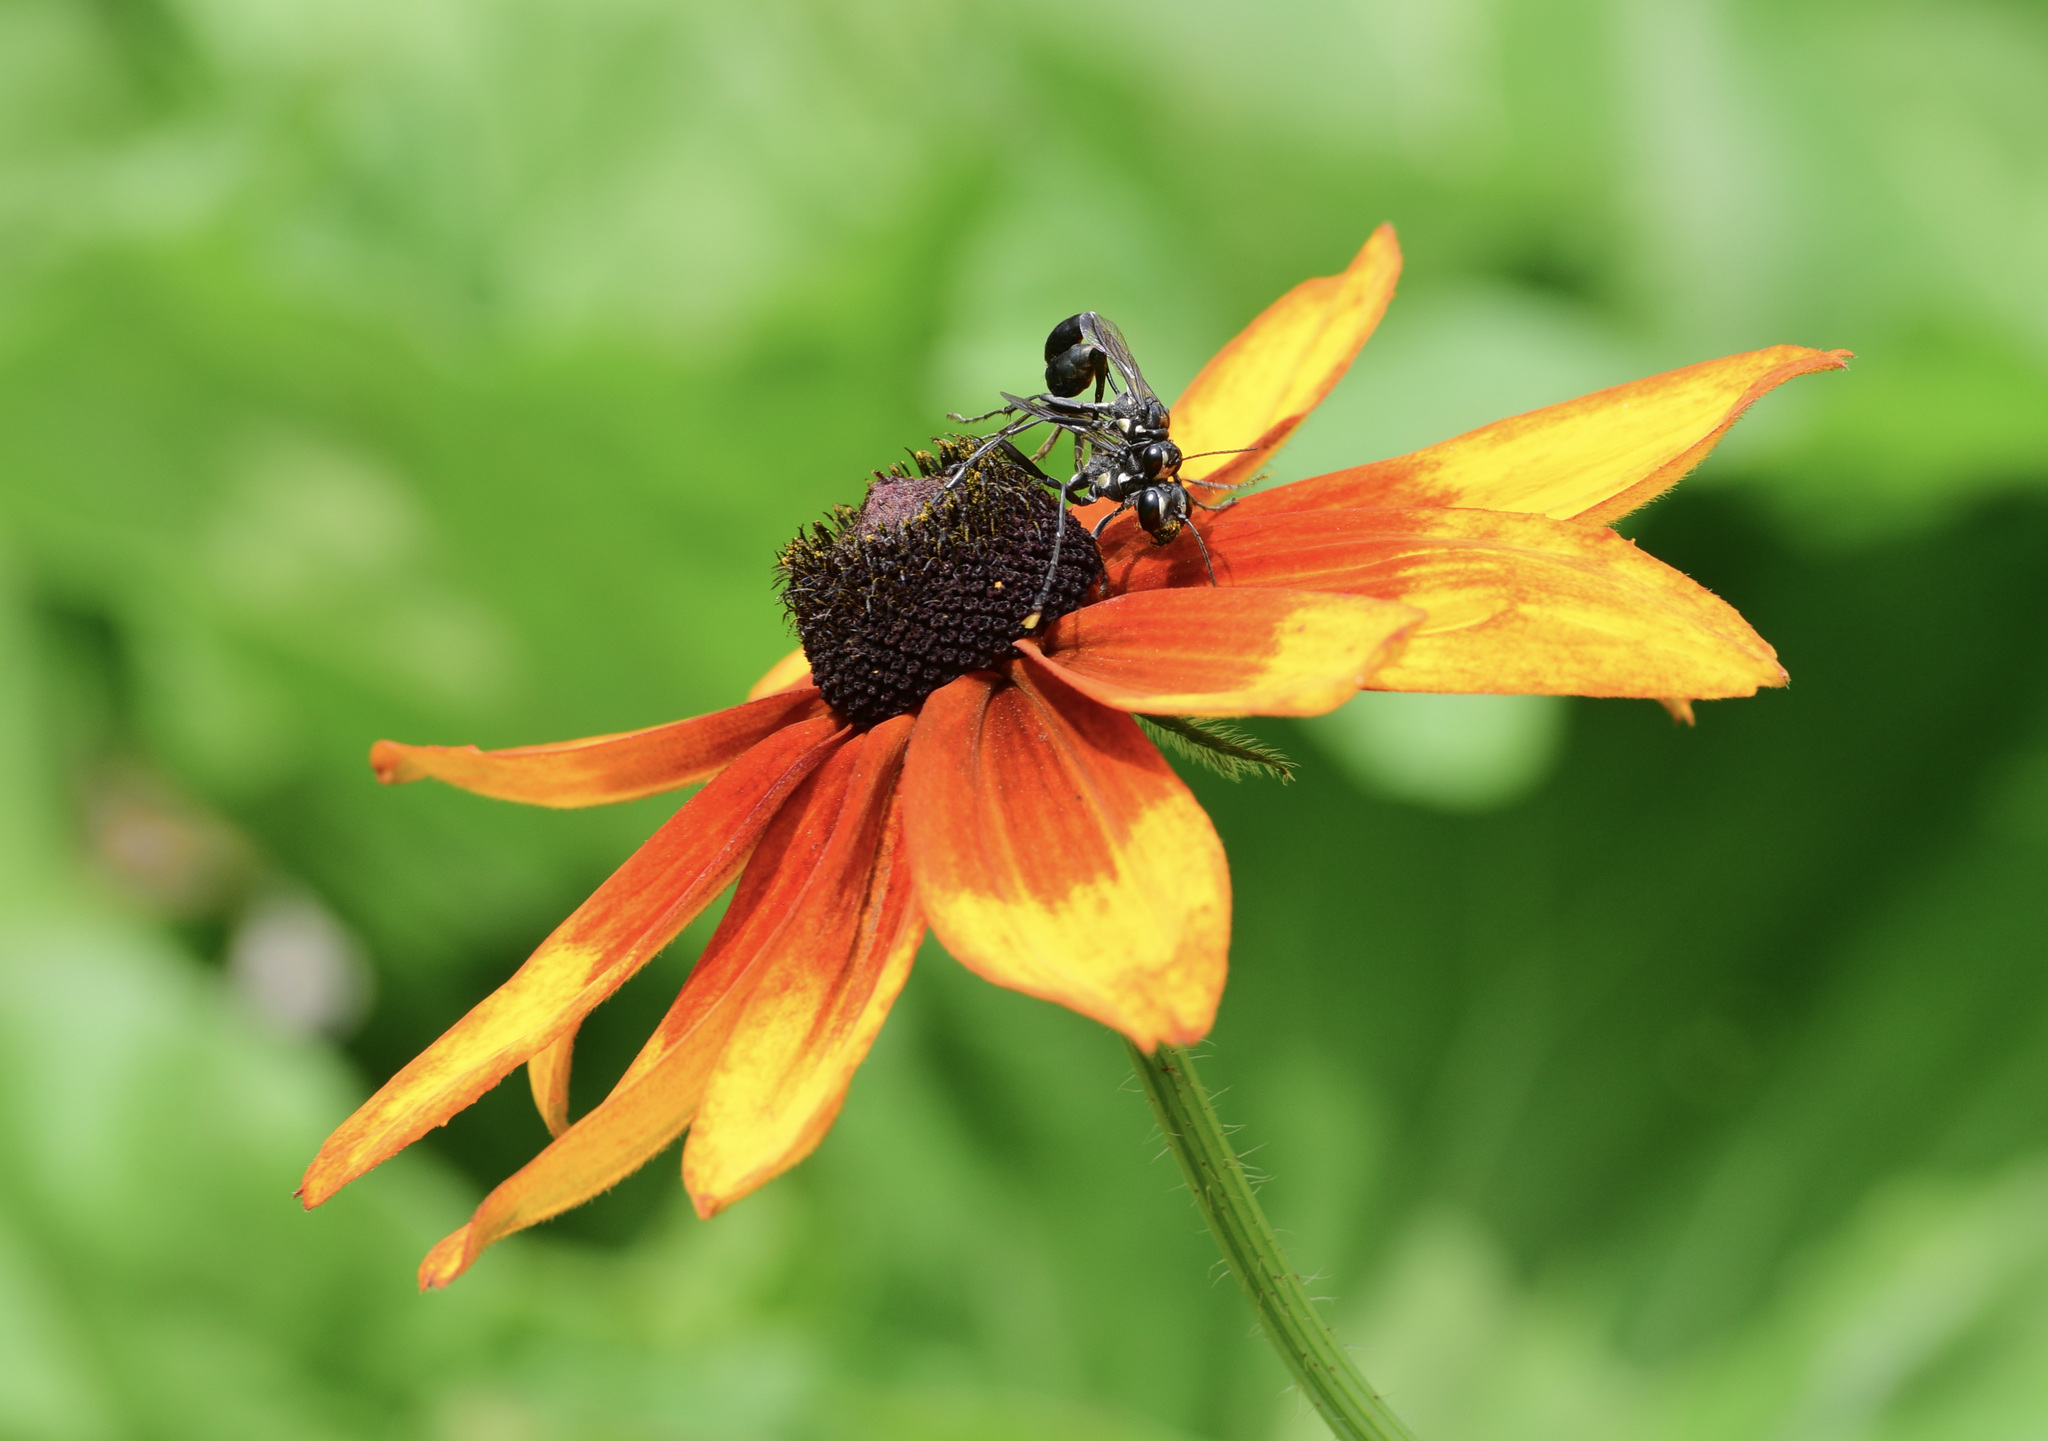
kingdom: Animalia
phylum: Arthropoda
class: Insecta
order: Hymenoptera
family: Sphecidae
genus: Eremnophila
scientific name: Eremnophila aureonotata
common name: Gold-marked thread-waisted wasp
